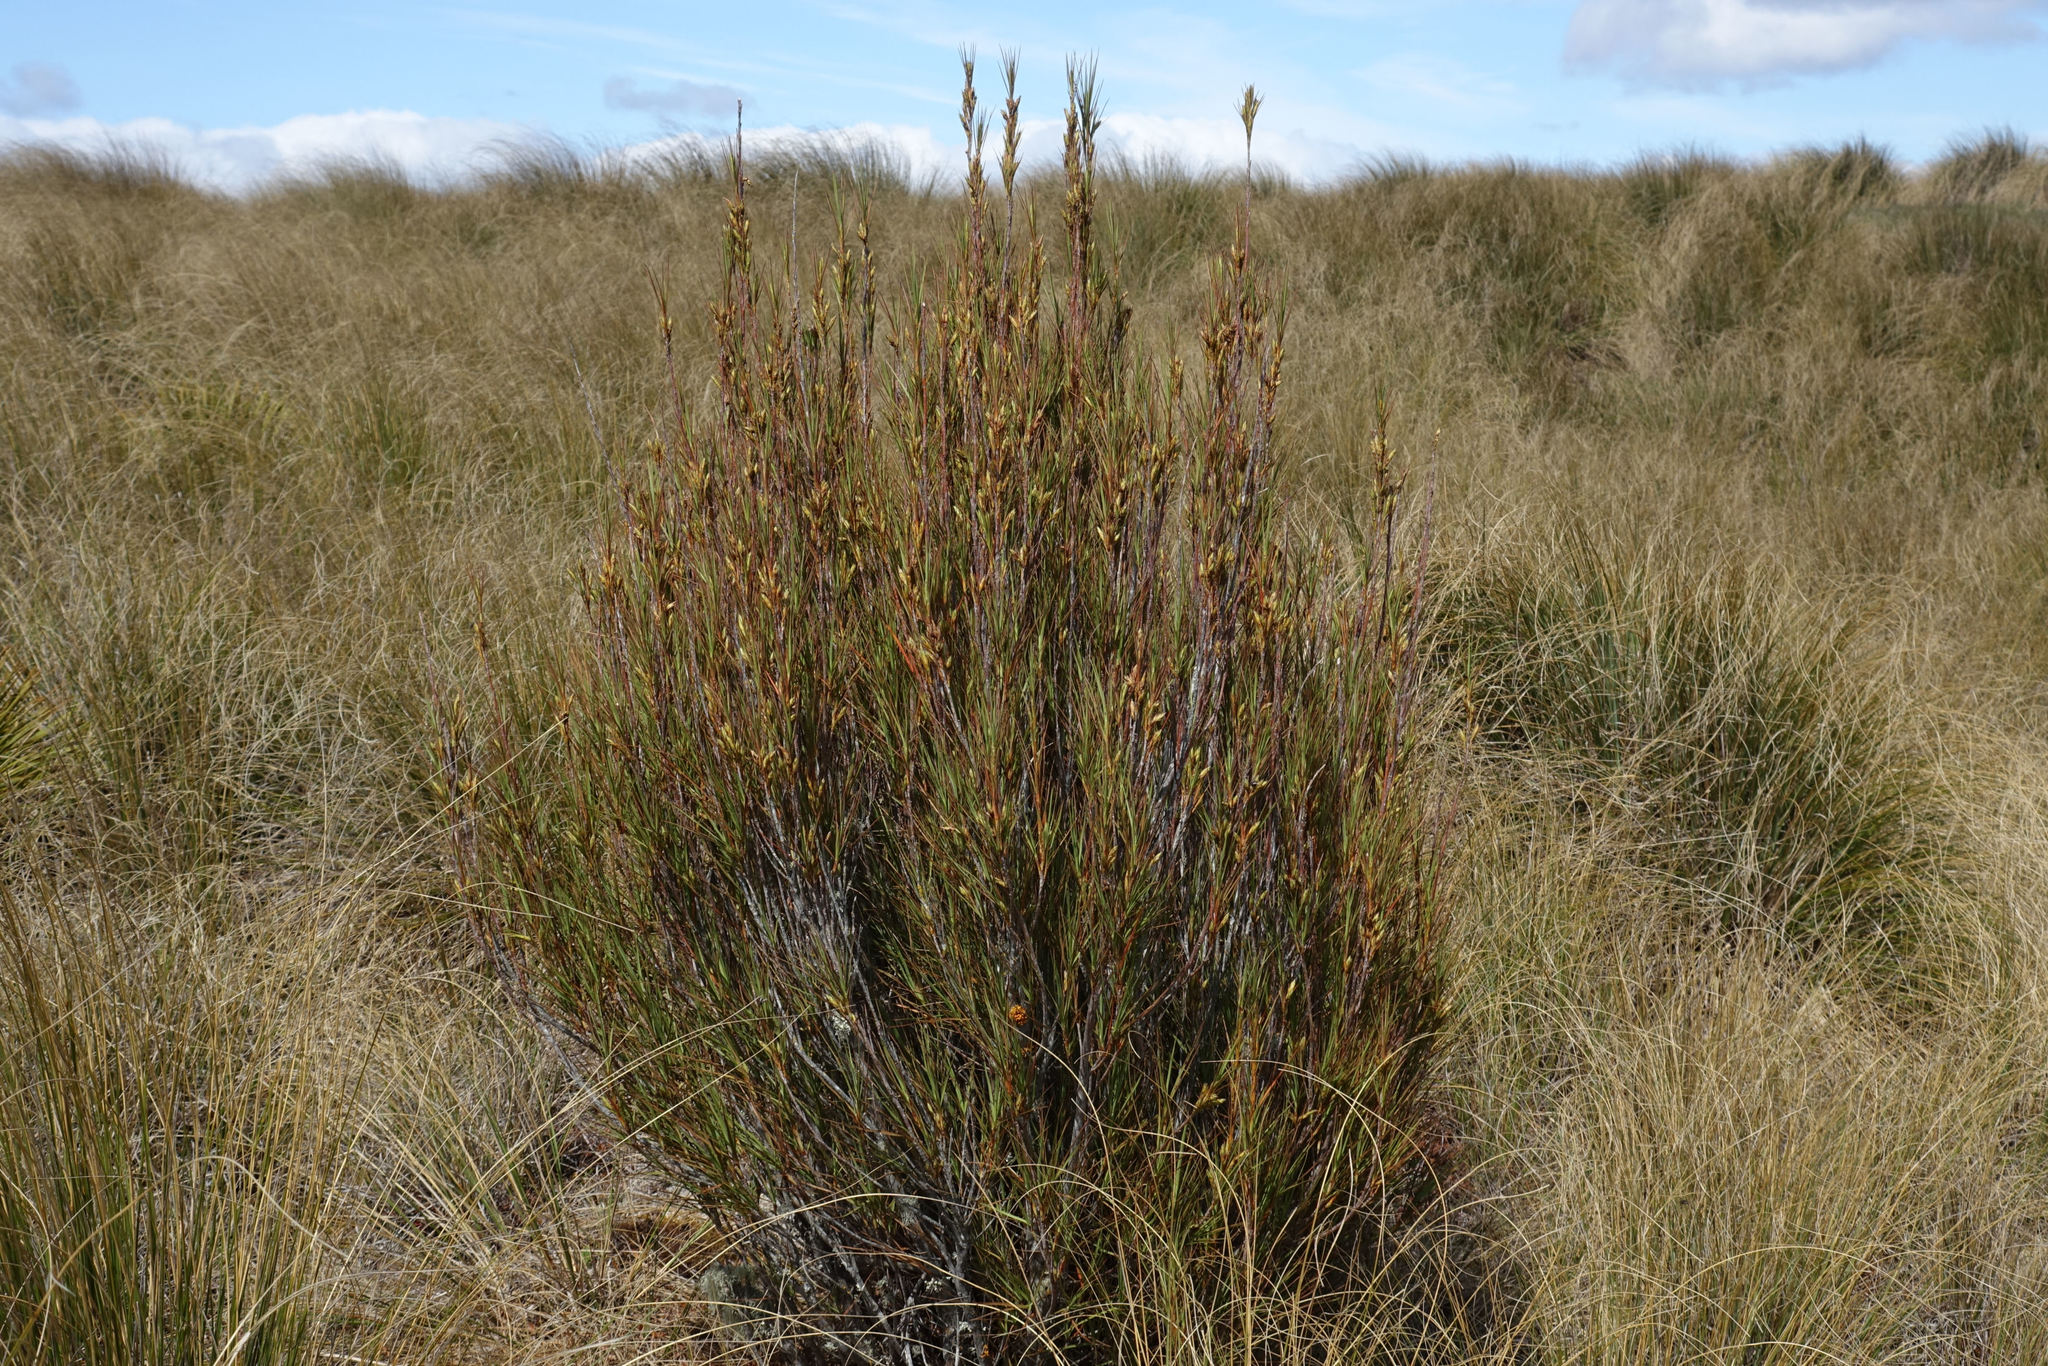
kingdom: Plantae
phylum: Tracheophyta
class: Magnoliopsida
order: Ericales
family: Ericaceae
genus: Dracophyllum
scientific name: Dracophyllum longifolium
